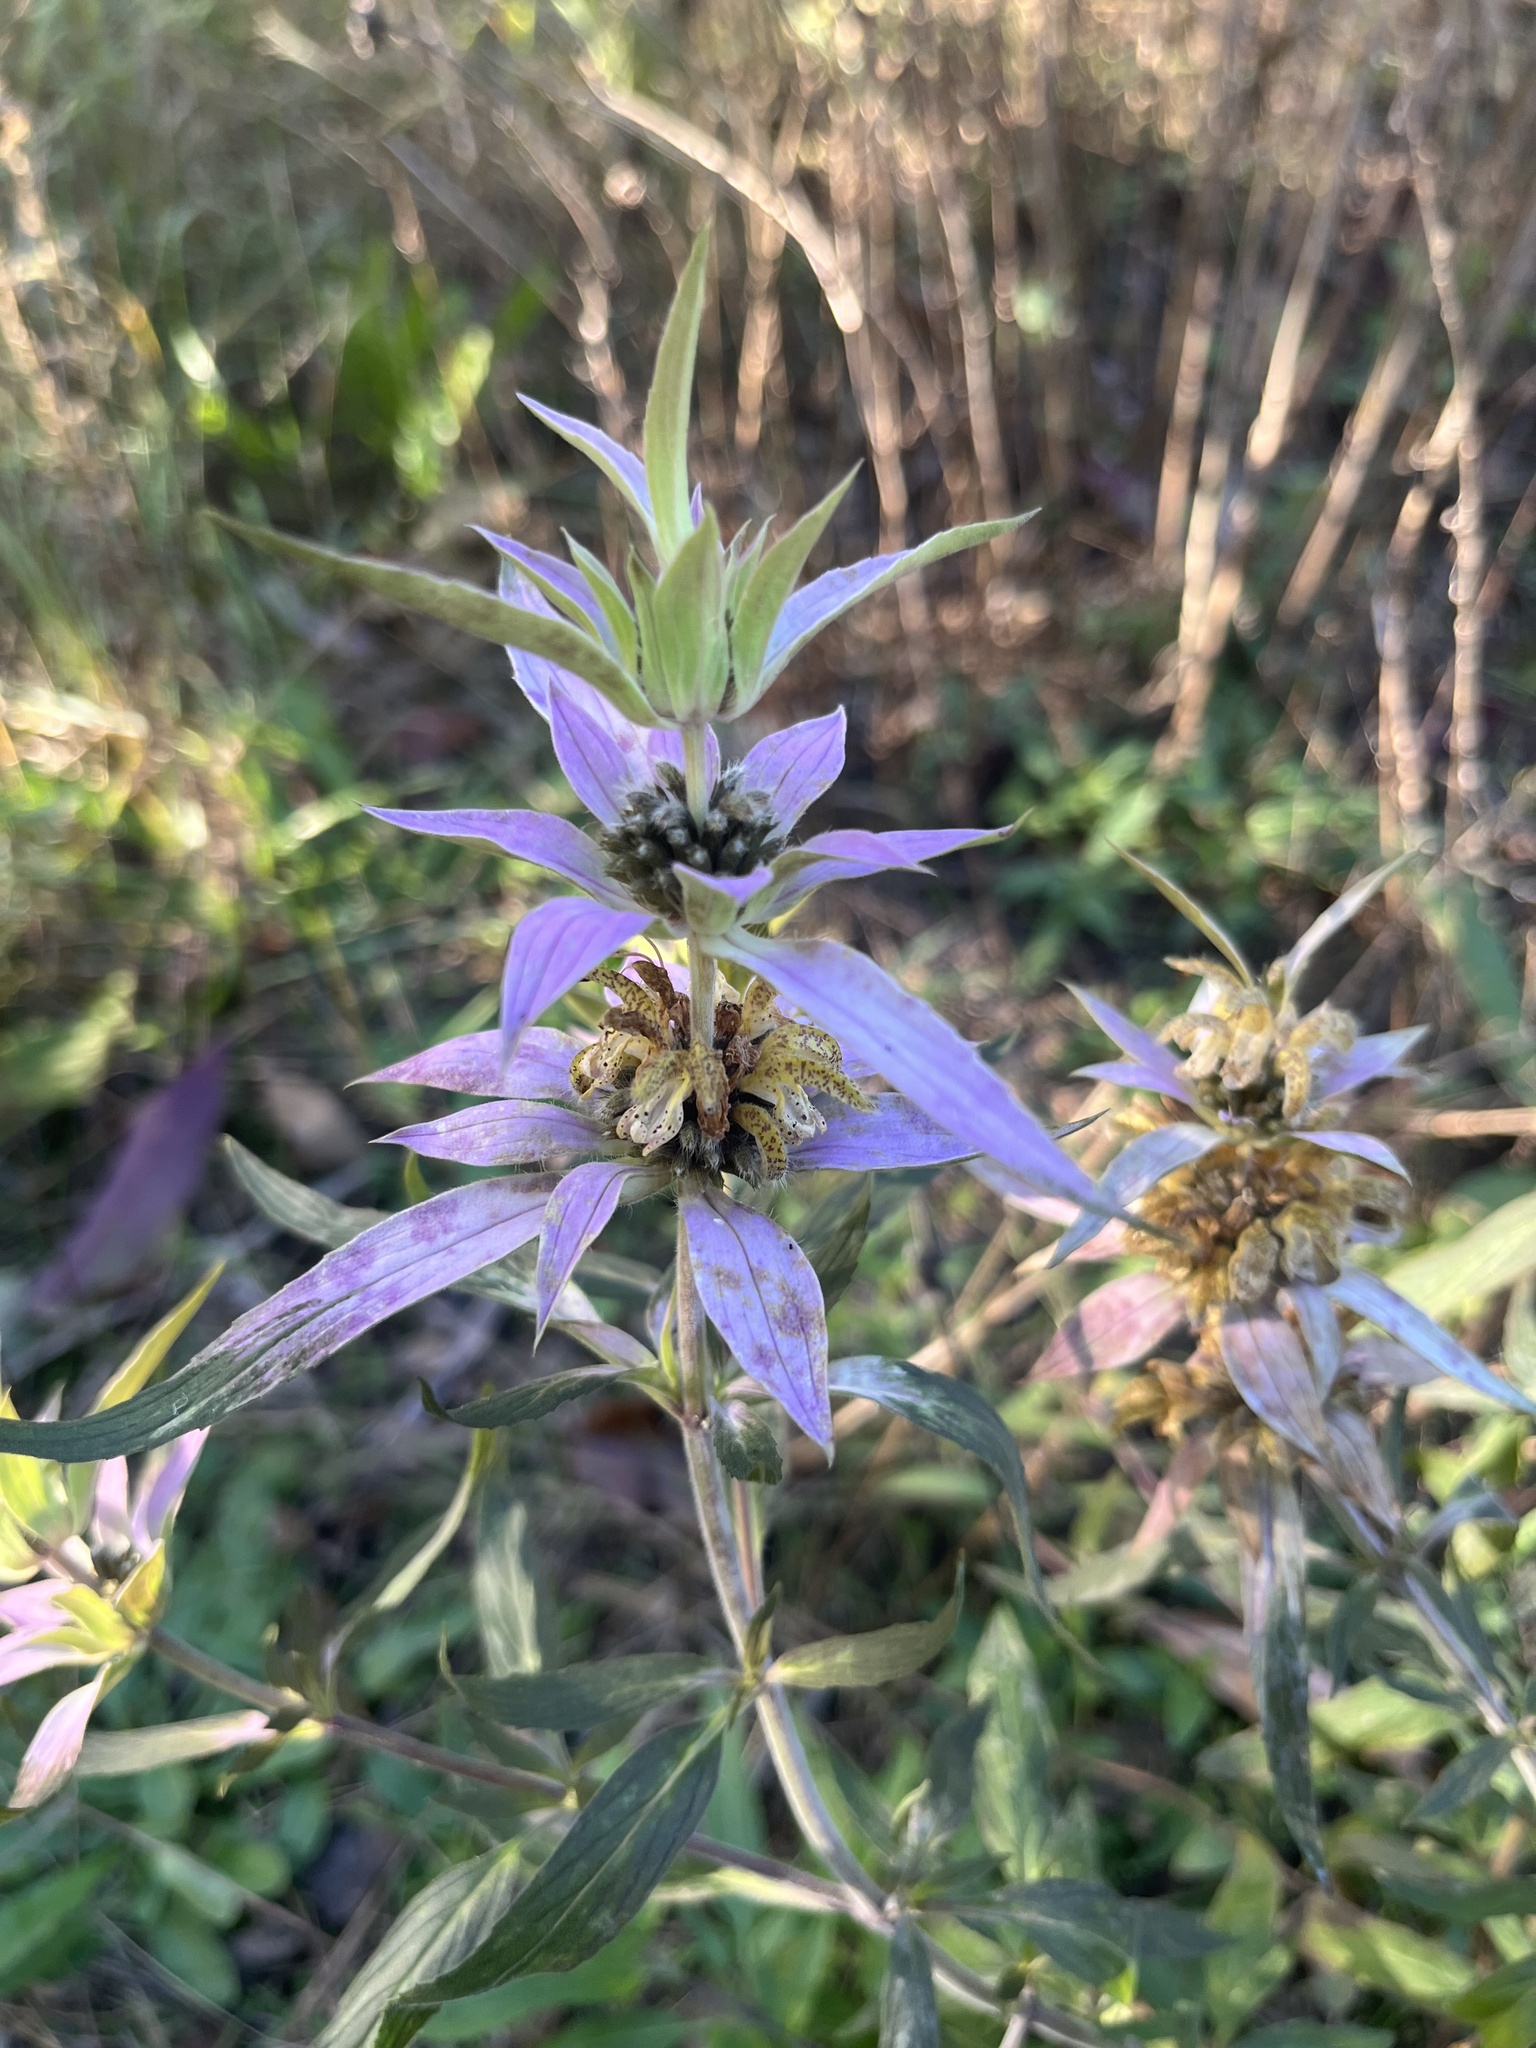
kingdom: Plantae
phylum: Tracheophyta
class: Magnoliopsida
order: Lamiales
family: Lamiaceae
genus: Monarda
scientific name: Monarda punctata
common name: Dotted monarda
